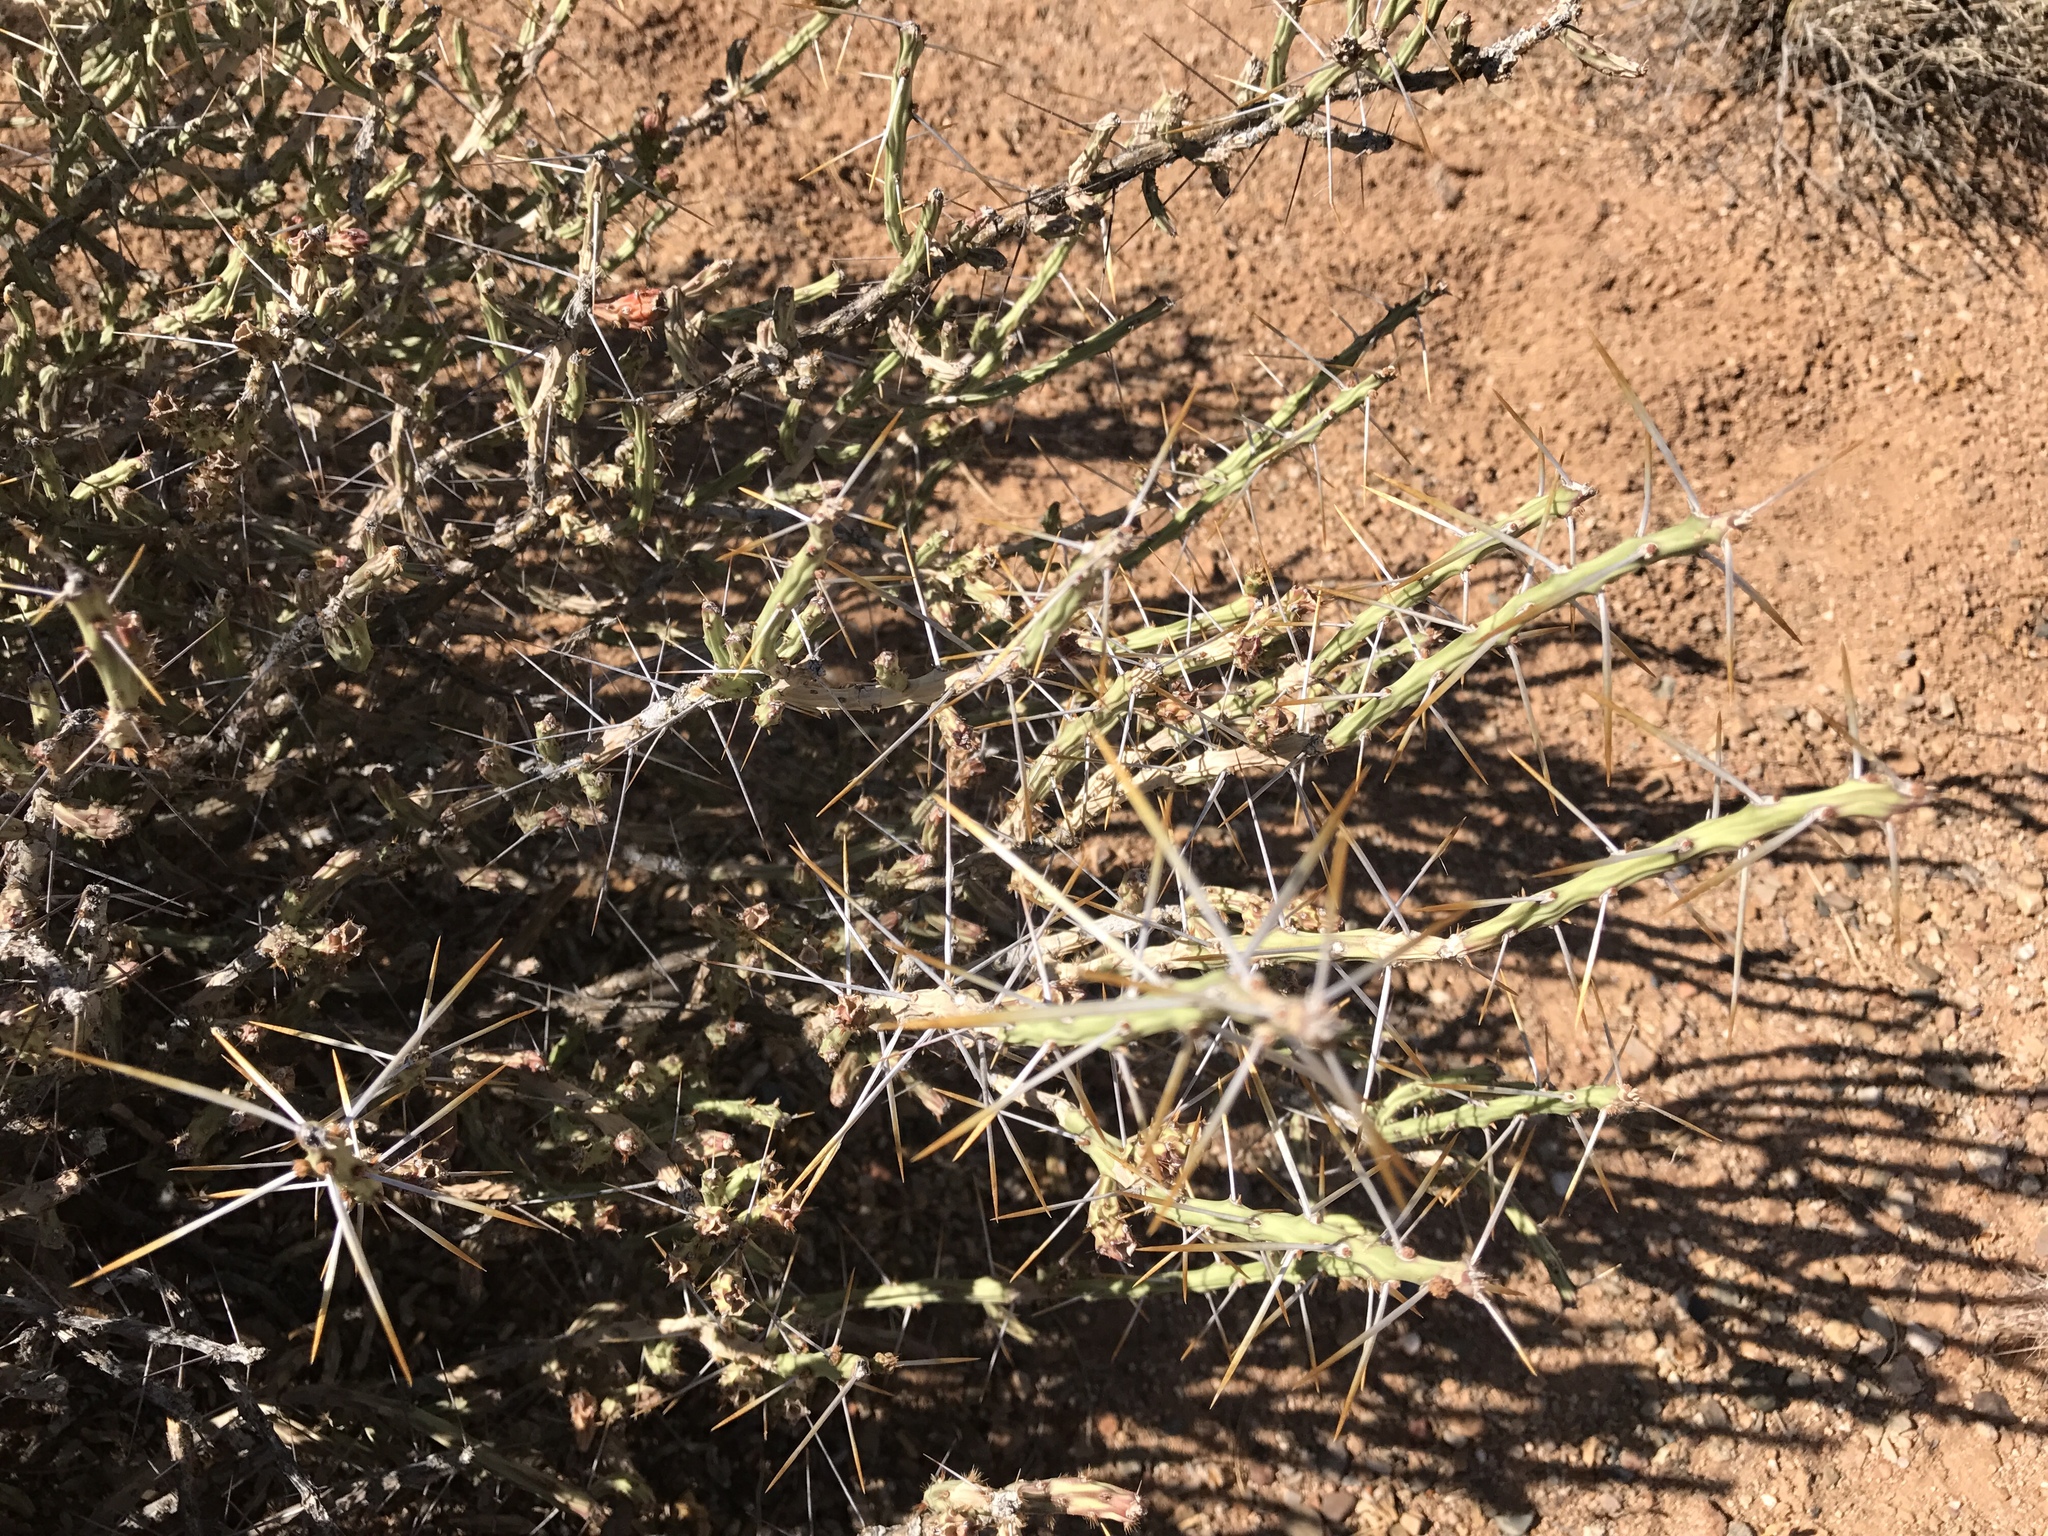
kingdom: Plantae
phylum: Tracheophyta
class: Magnoliopsida
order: Caryophyllales
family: Cactaceae
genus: Cylindropuntia
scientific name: Cylindropuntia leptocaulis
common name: Christmas cactus
